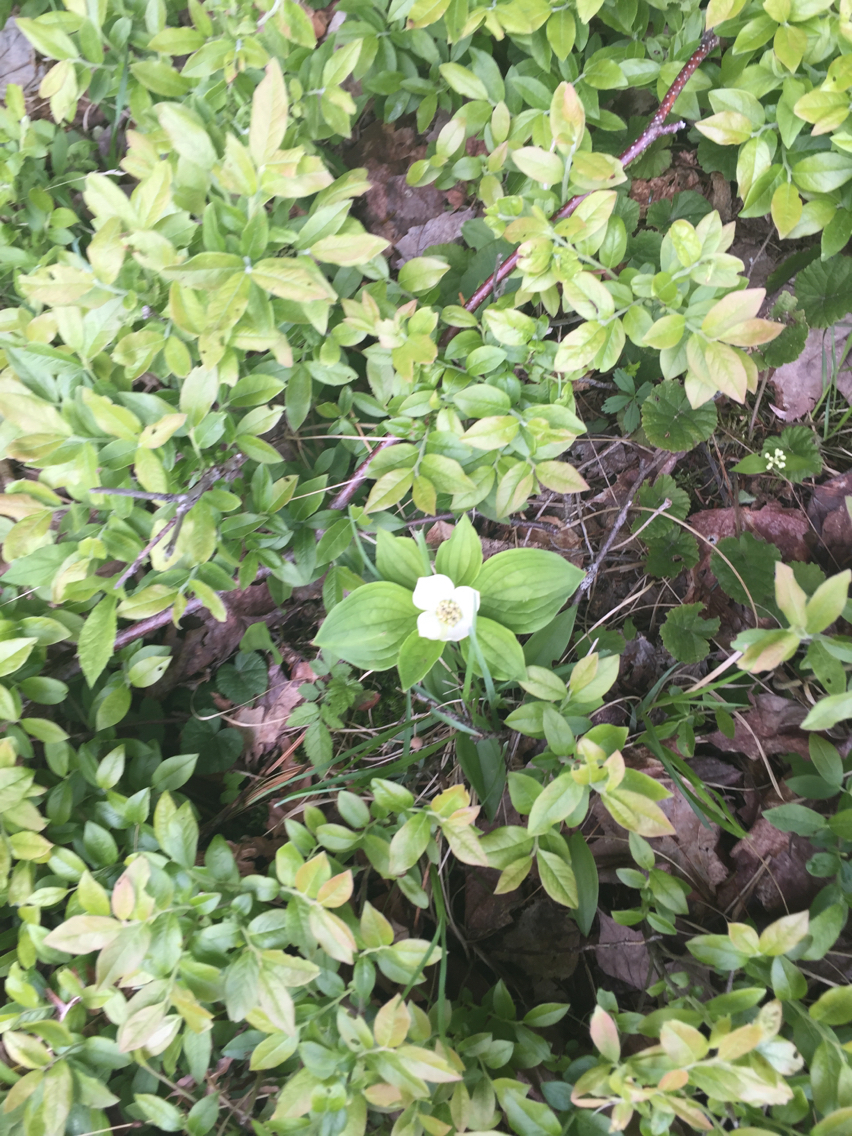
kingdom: Plantae
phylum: Tracheophyta
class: Magnoliopsida
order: Cornales
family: Cornaceae
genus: Cornus
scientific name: Cornus canadensis
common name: Creeping dogwood
